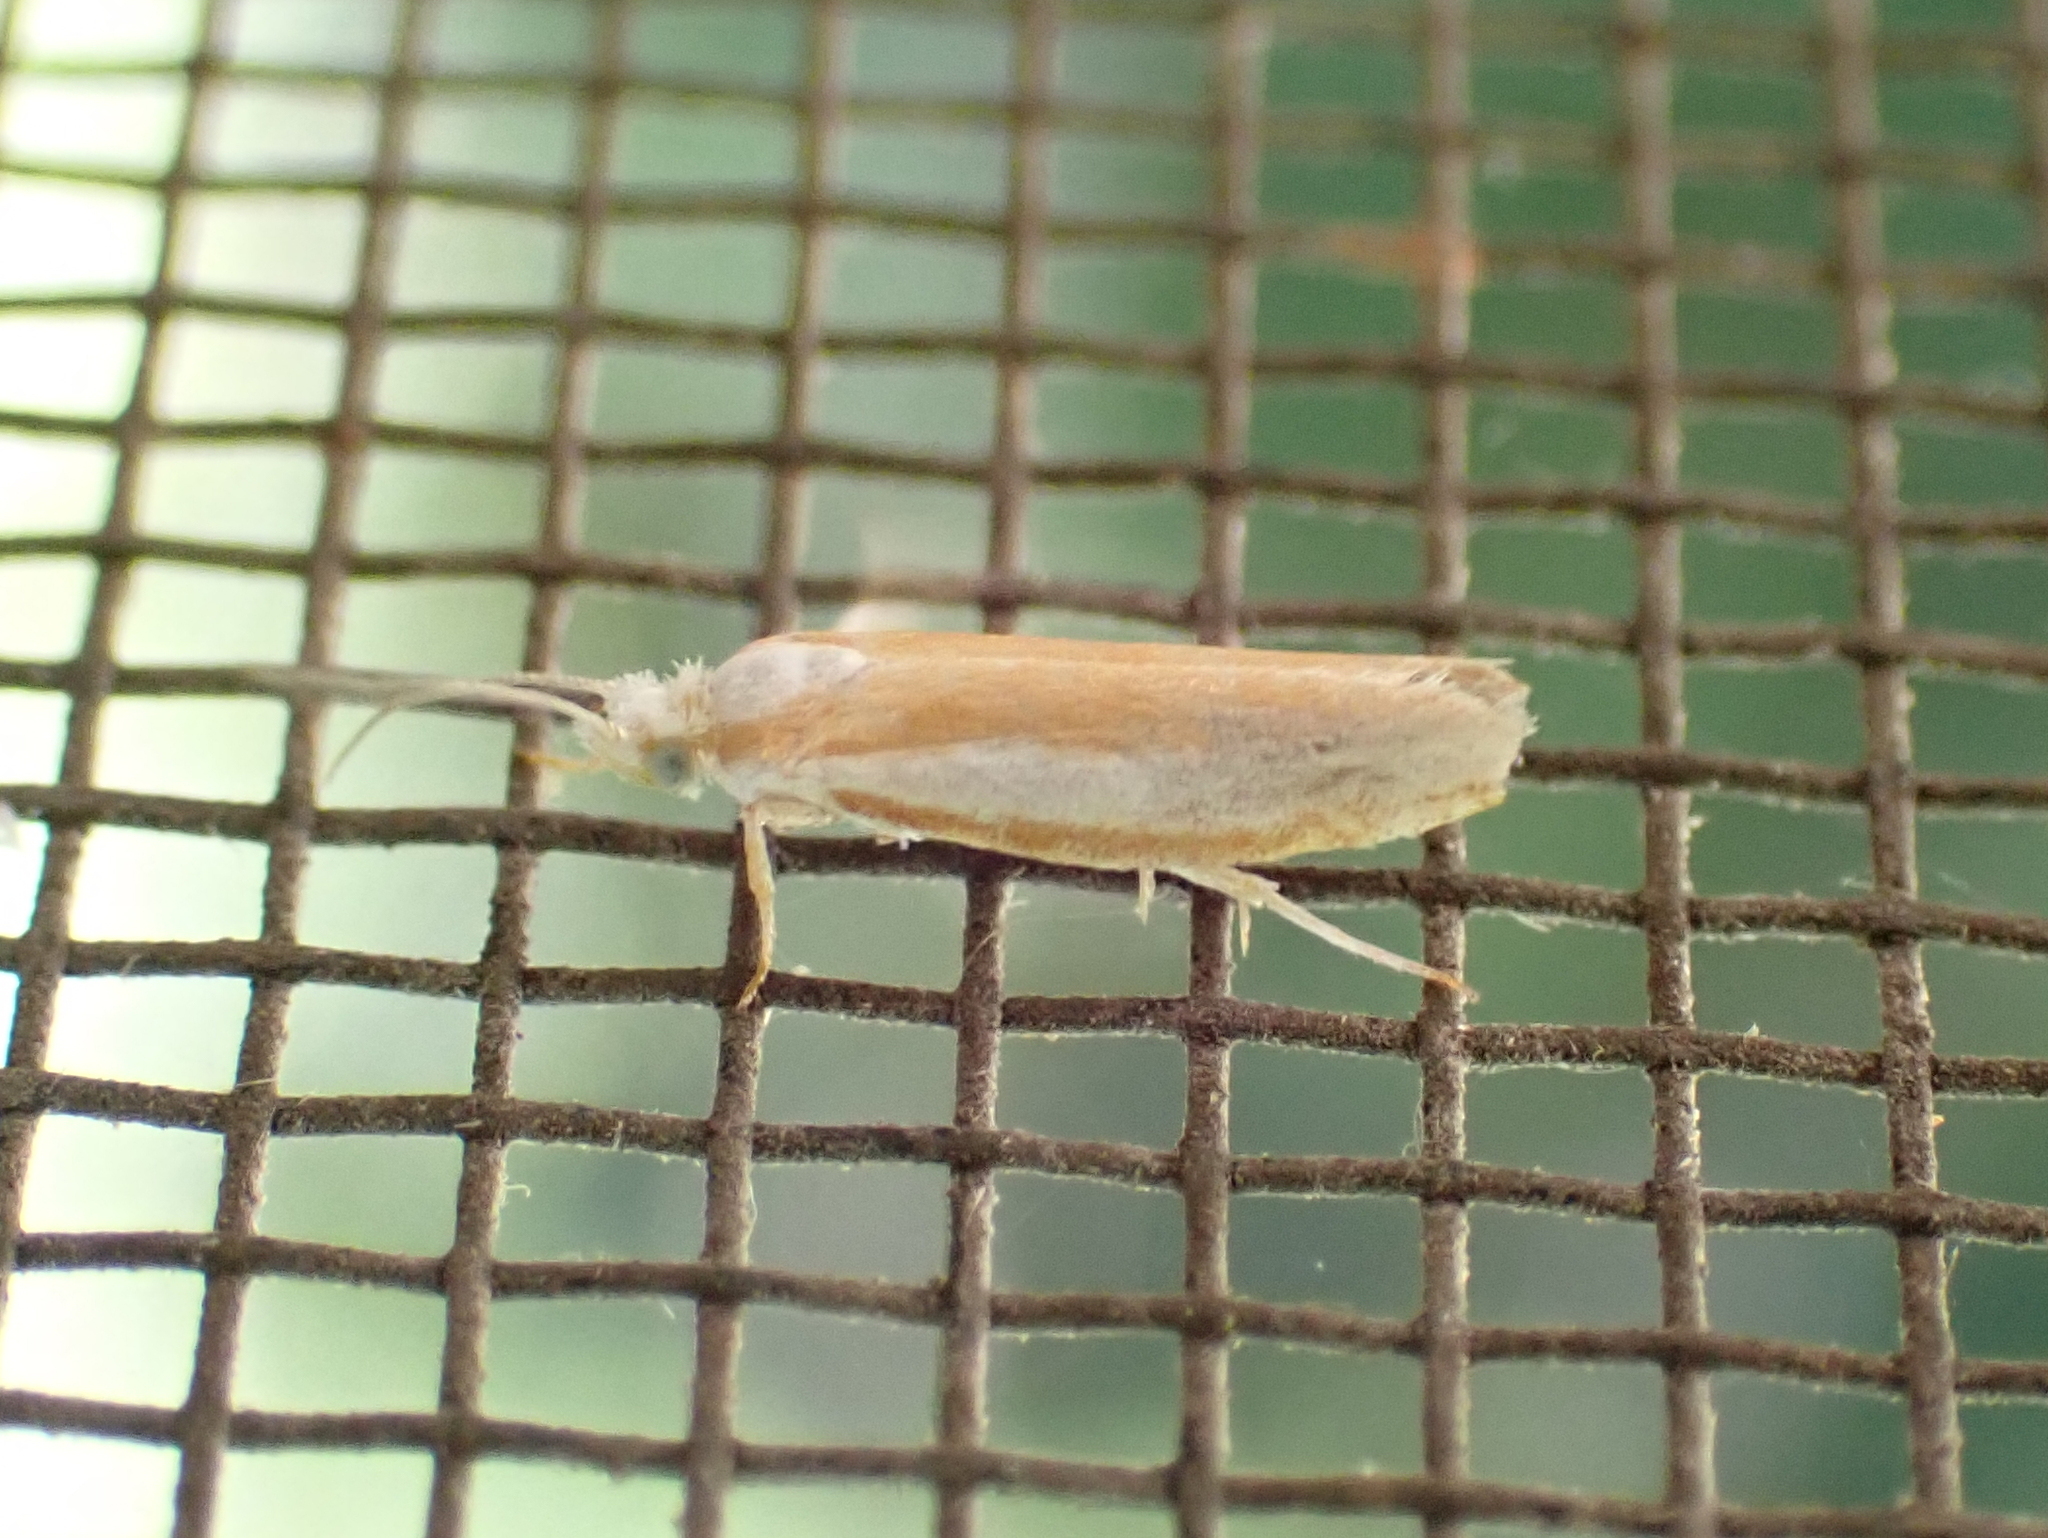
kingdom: Animalia
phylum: Arthropoda
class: Insecta
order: Lepidoptera
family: Yponomeutidae
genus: Zelleria
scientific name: Zelleria haimbachi
